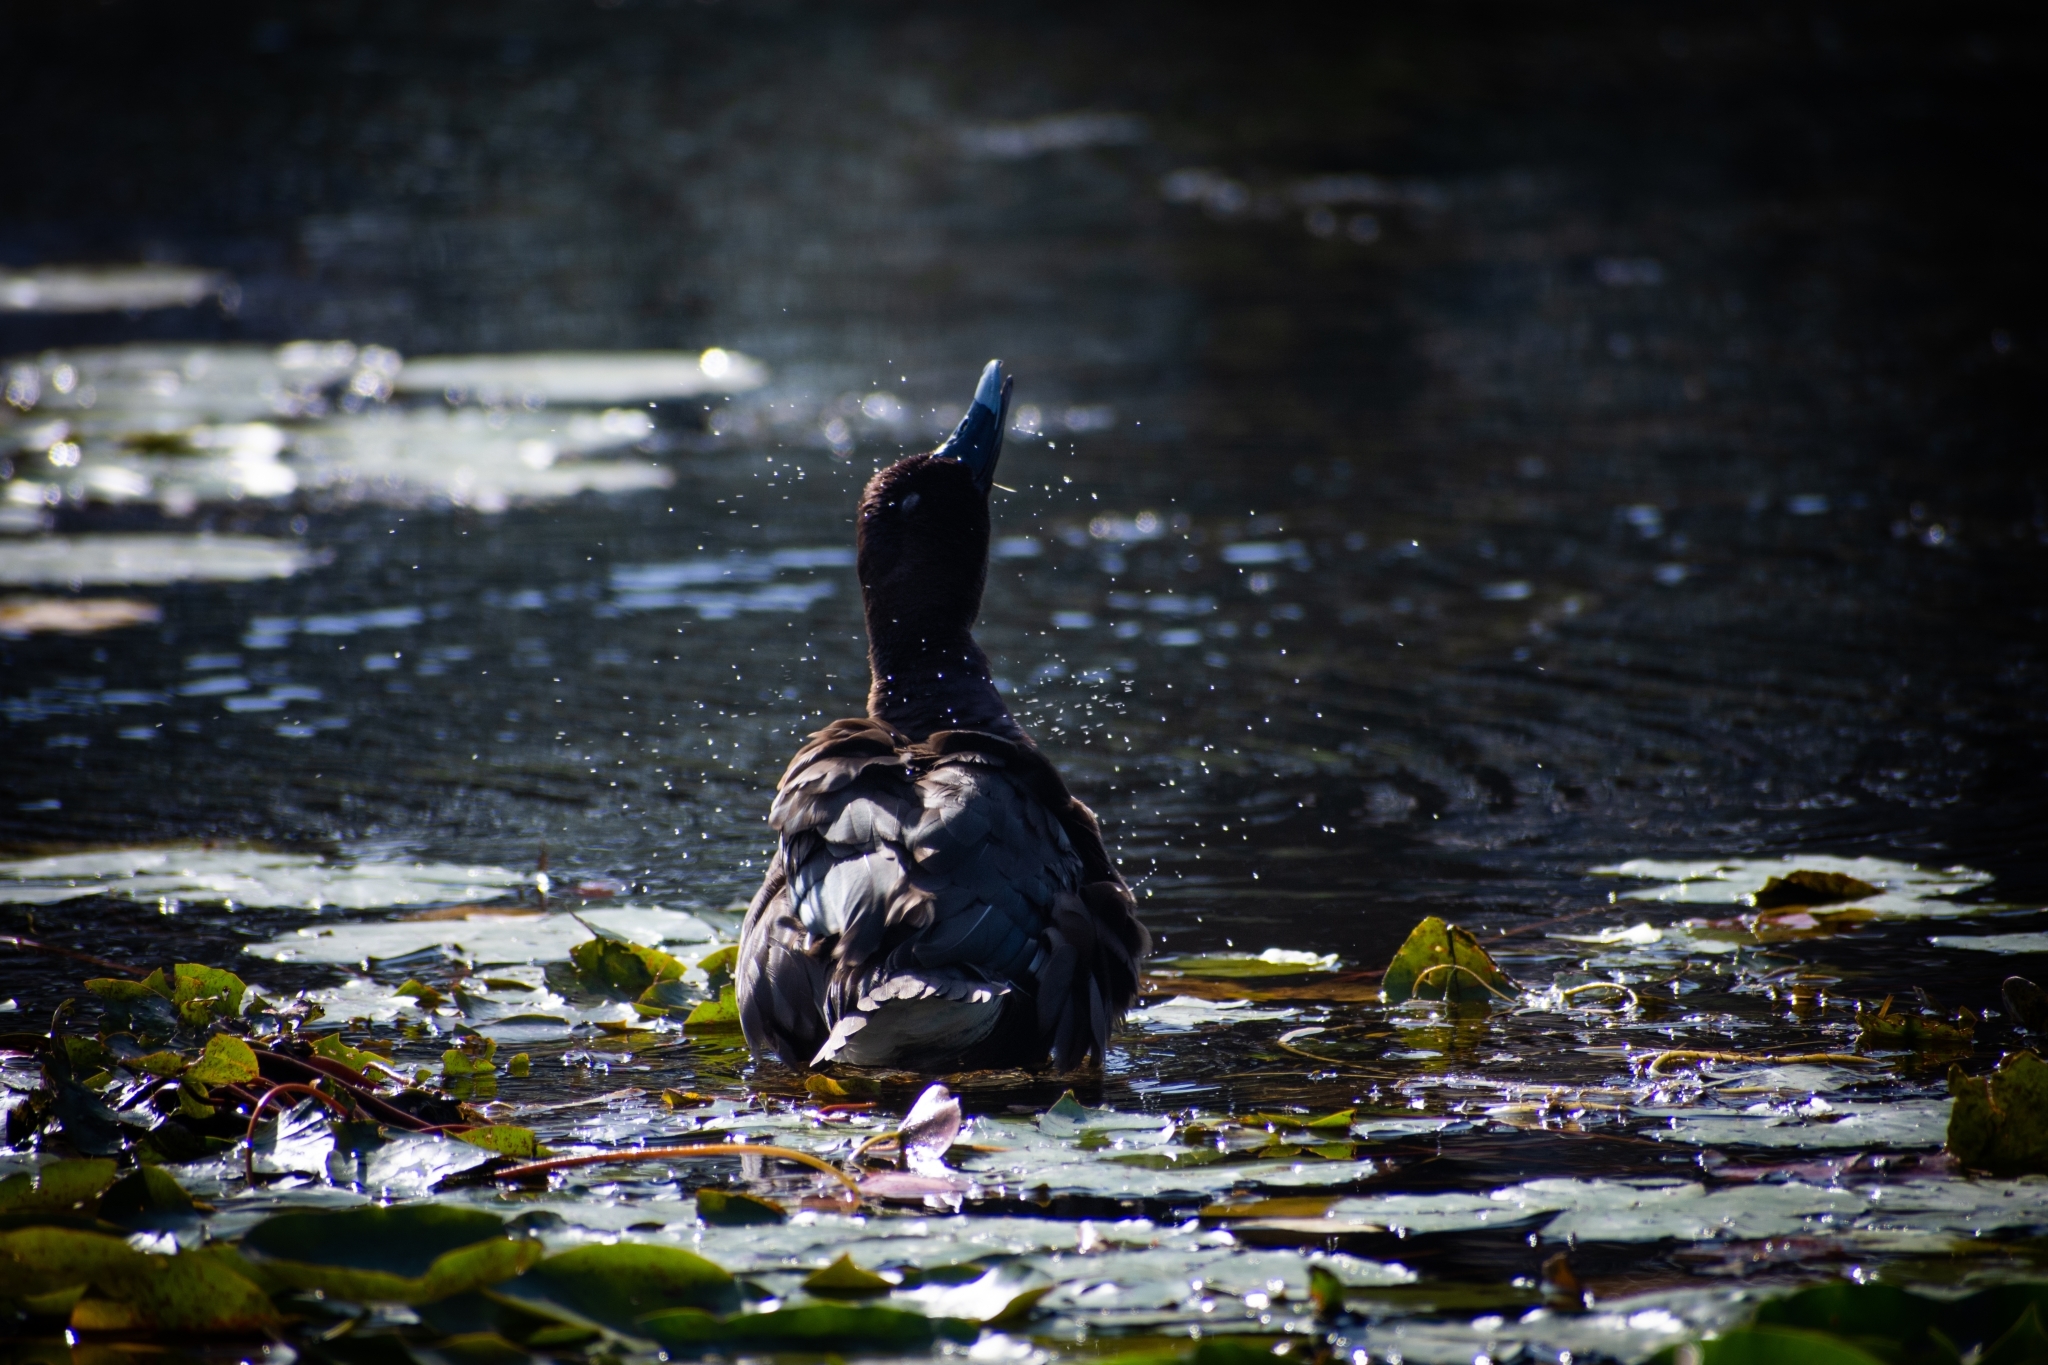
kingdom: Animalia
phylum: Chordata
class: Aves
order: Anseriformes
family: Anatidae
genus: Aythya
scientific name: Aythya australis
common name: Hardhead
